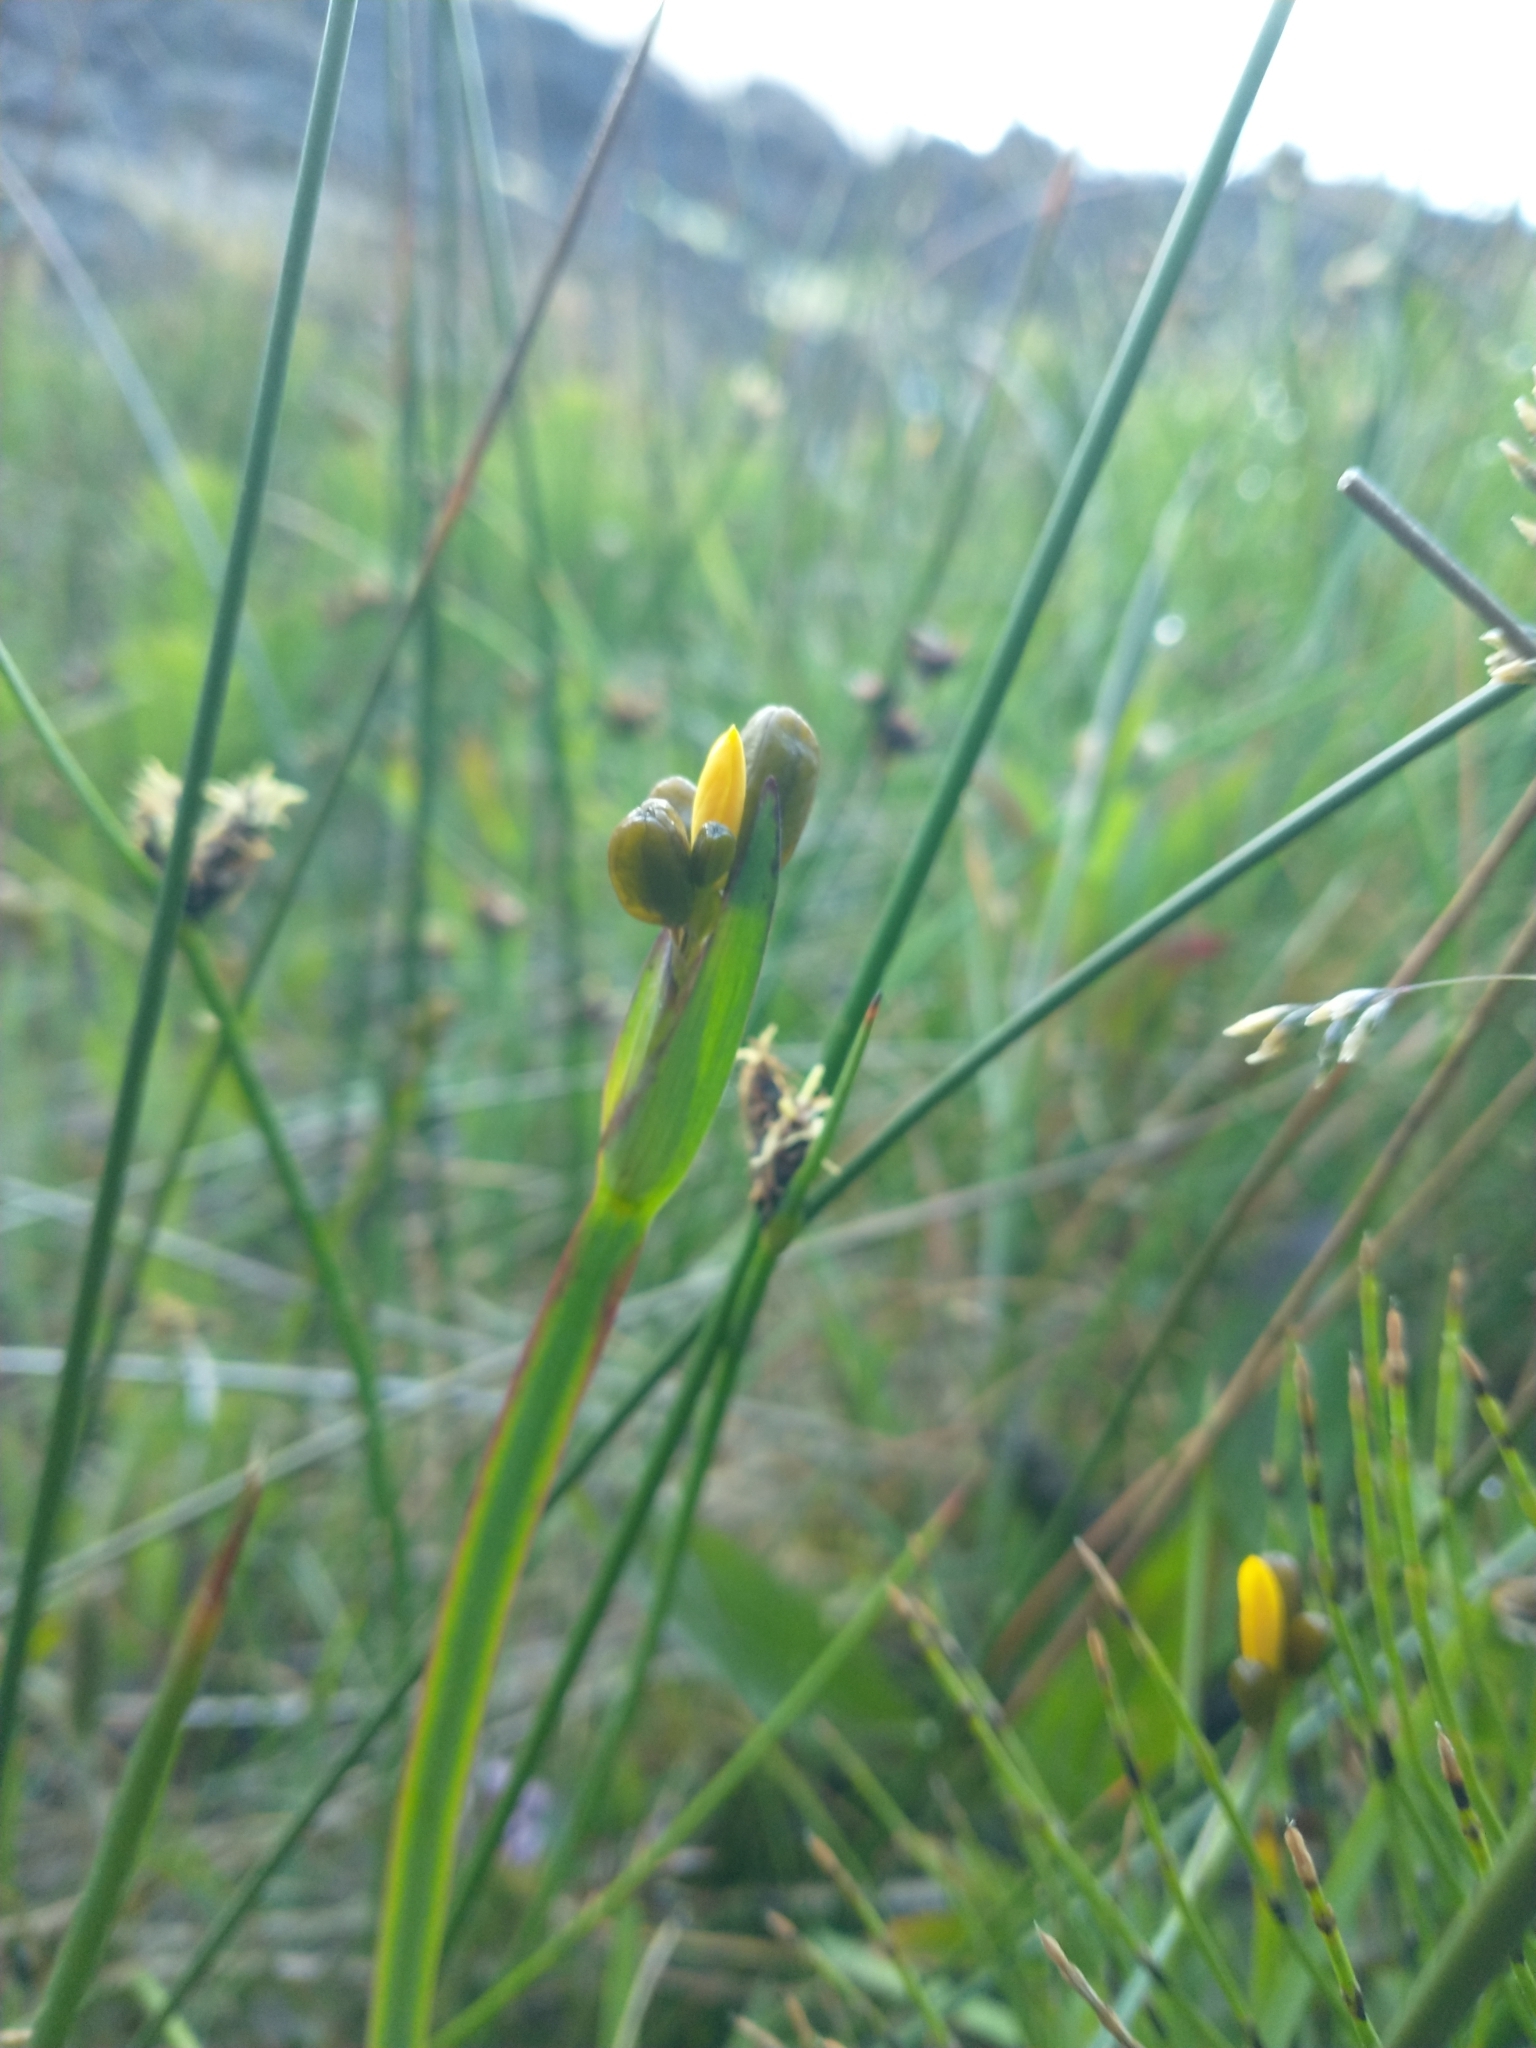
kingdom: Plantae
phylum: Tracheophyta
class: Liliopsida
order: Asparagales
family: Iridaceae
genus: Sisyrinchium
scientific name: Sisyrinchium californicum
